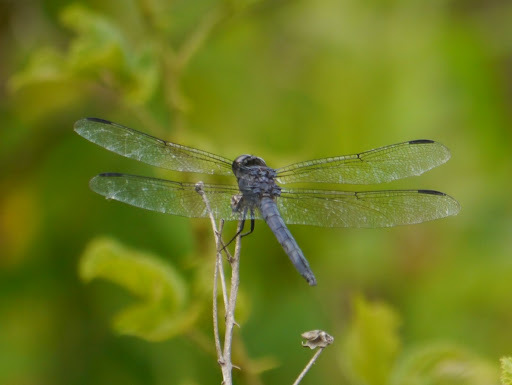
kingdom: Animalia
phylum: Arthropoda
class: Insecta
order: Odonata
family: Libellulidae
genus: Libellula
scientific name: Libellula incesta
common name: Slaty skimmer
